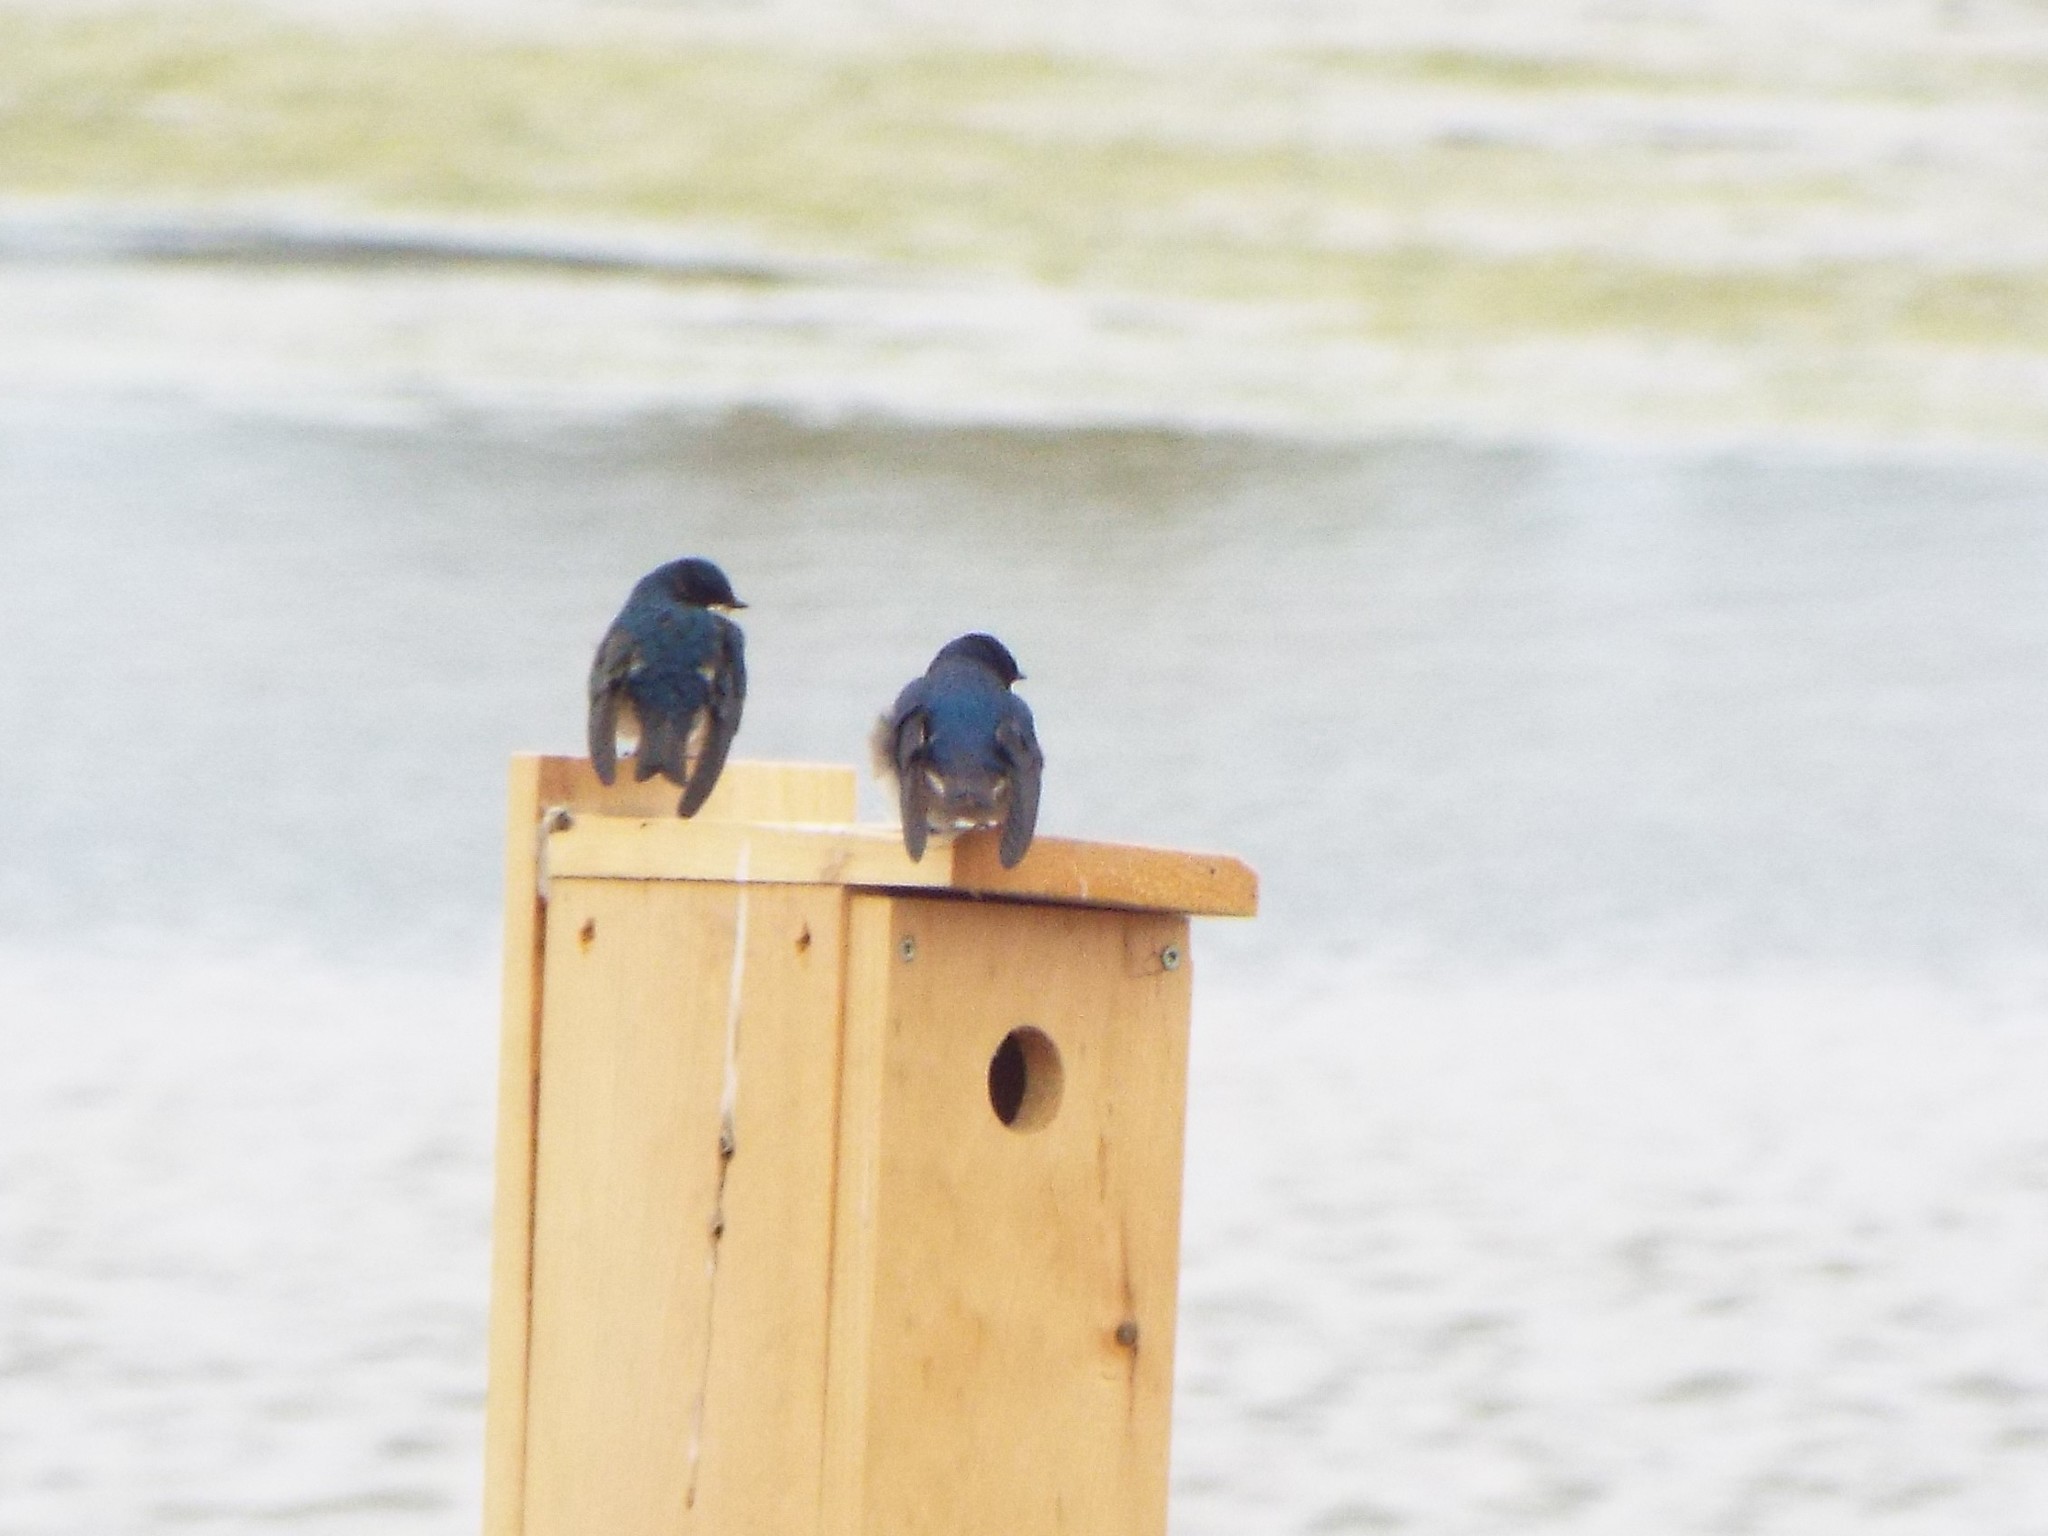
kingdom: Animalia
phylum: Chordata
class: Aves
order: Passeriformes
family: Hirundinidae
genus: Tachycineta
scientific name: Tachycineta bicolor
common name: Tree swallow
